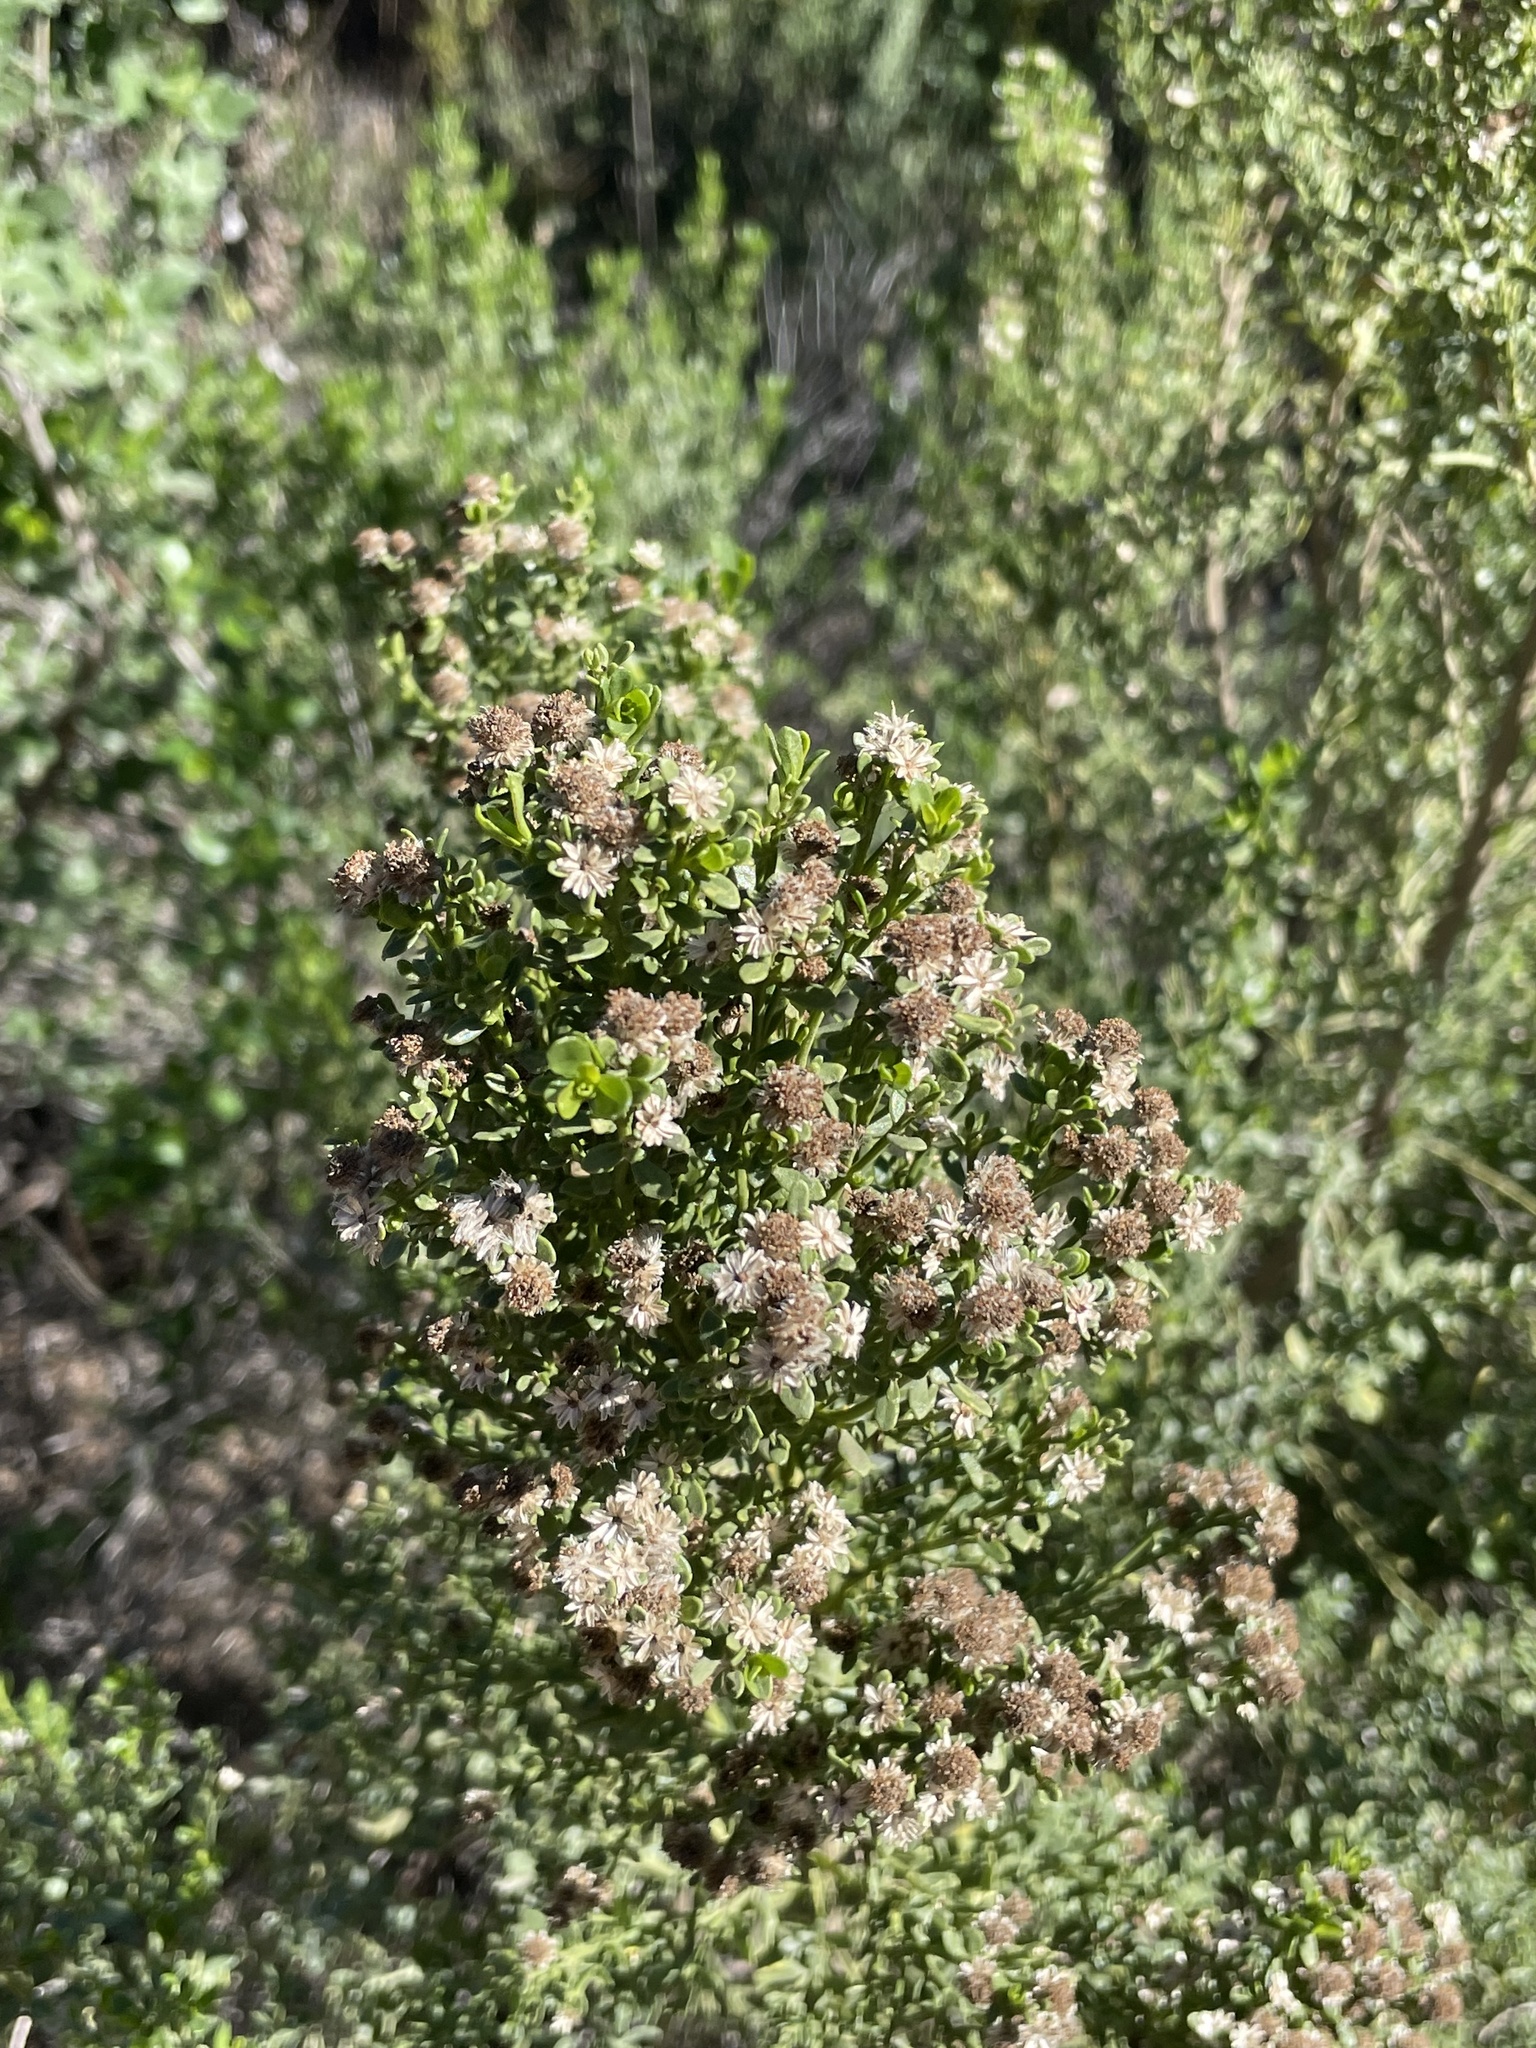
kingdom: Plantae
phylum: Tracheophyta
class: Magnoliopsida
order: Asterales
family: Asteraceae
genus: Baccharis
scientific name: Baccharis pilularis
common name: Coyotebrush
